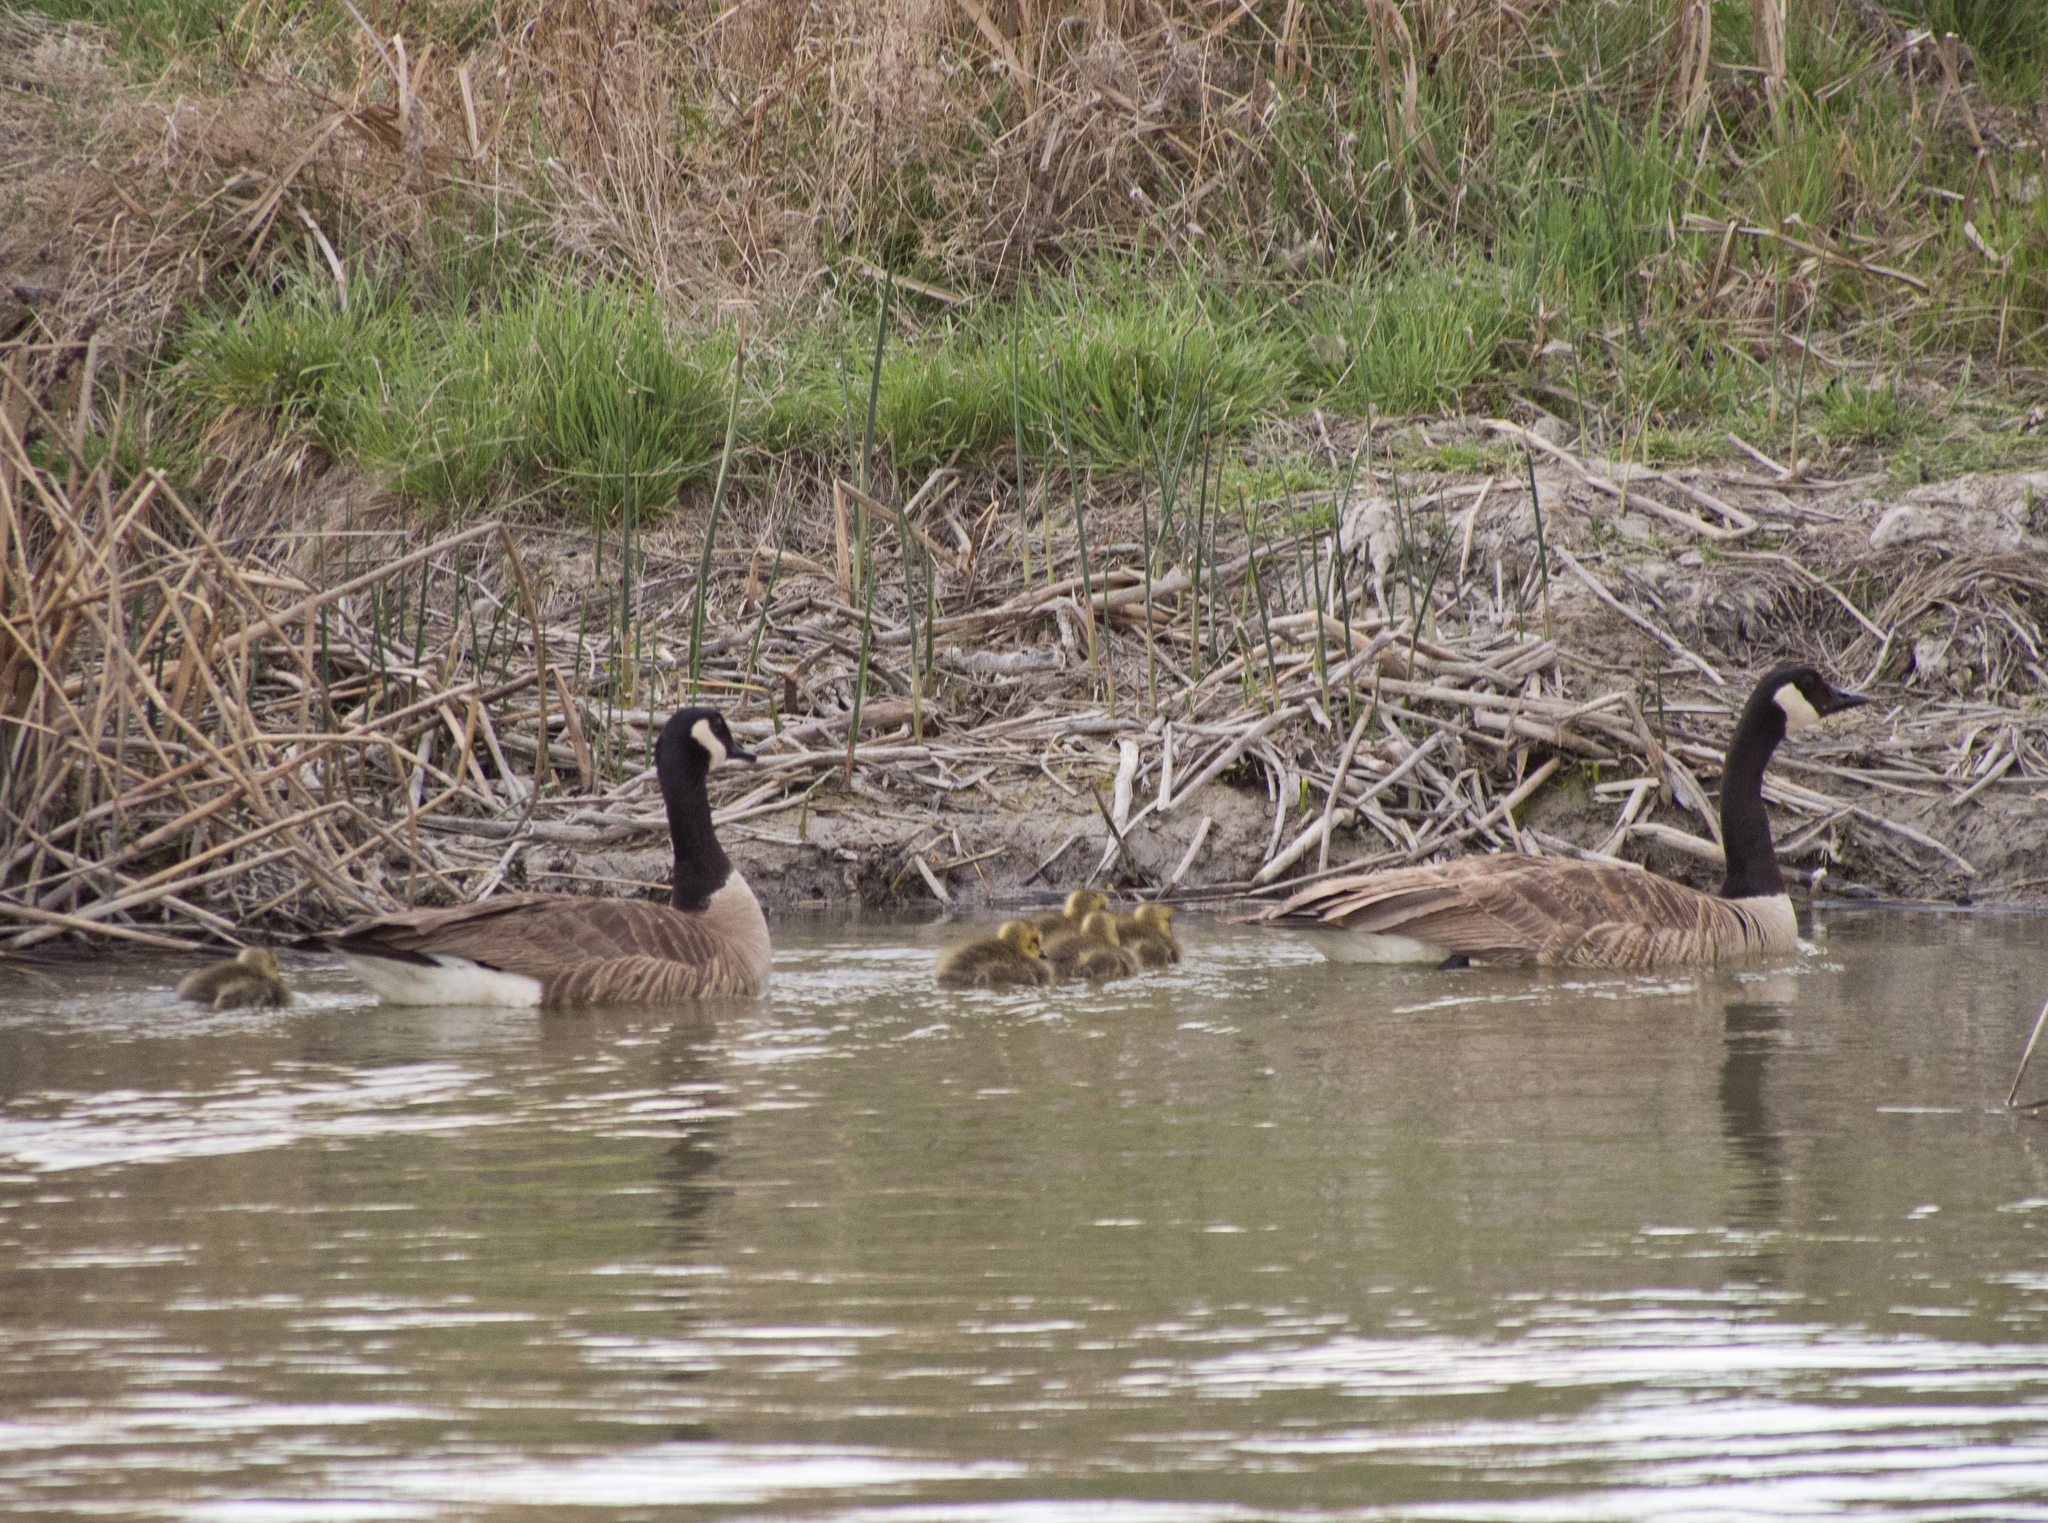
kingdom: Animalia
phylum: Chordata
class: Aves
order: Anseriformes
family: Anatidae
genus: Branta
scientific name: Branta canadensis
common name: Canada goose
